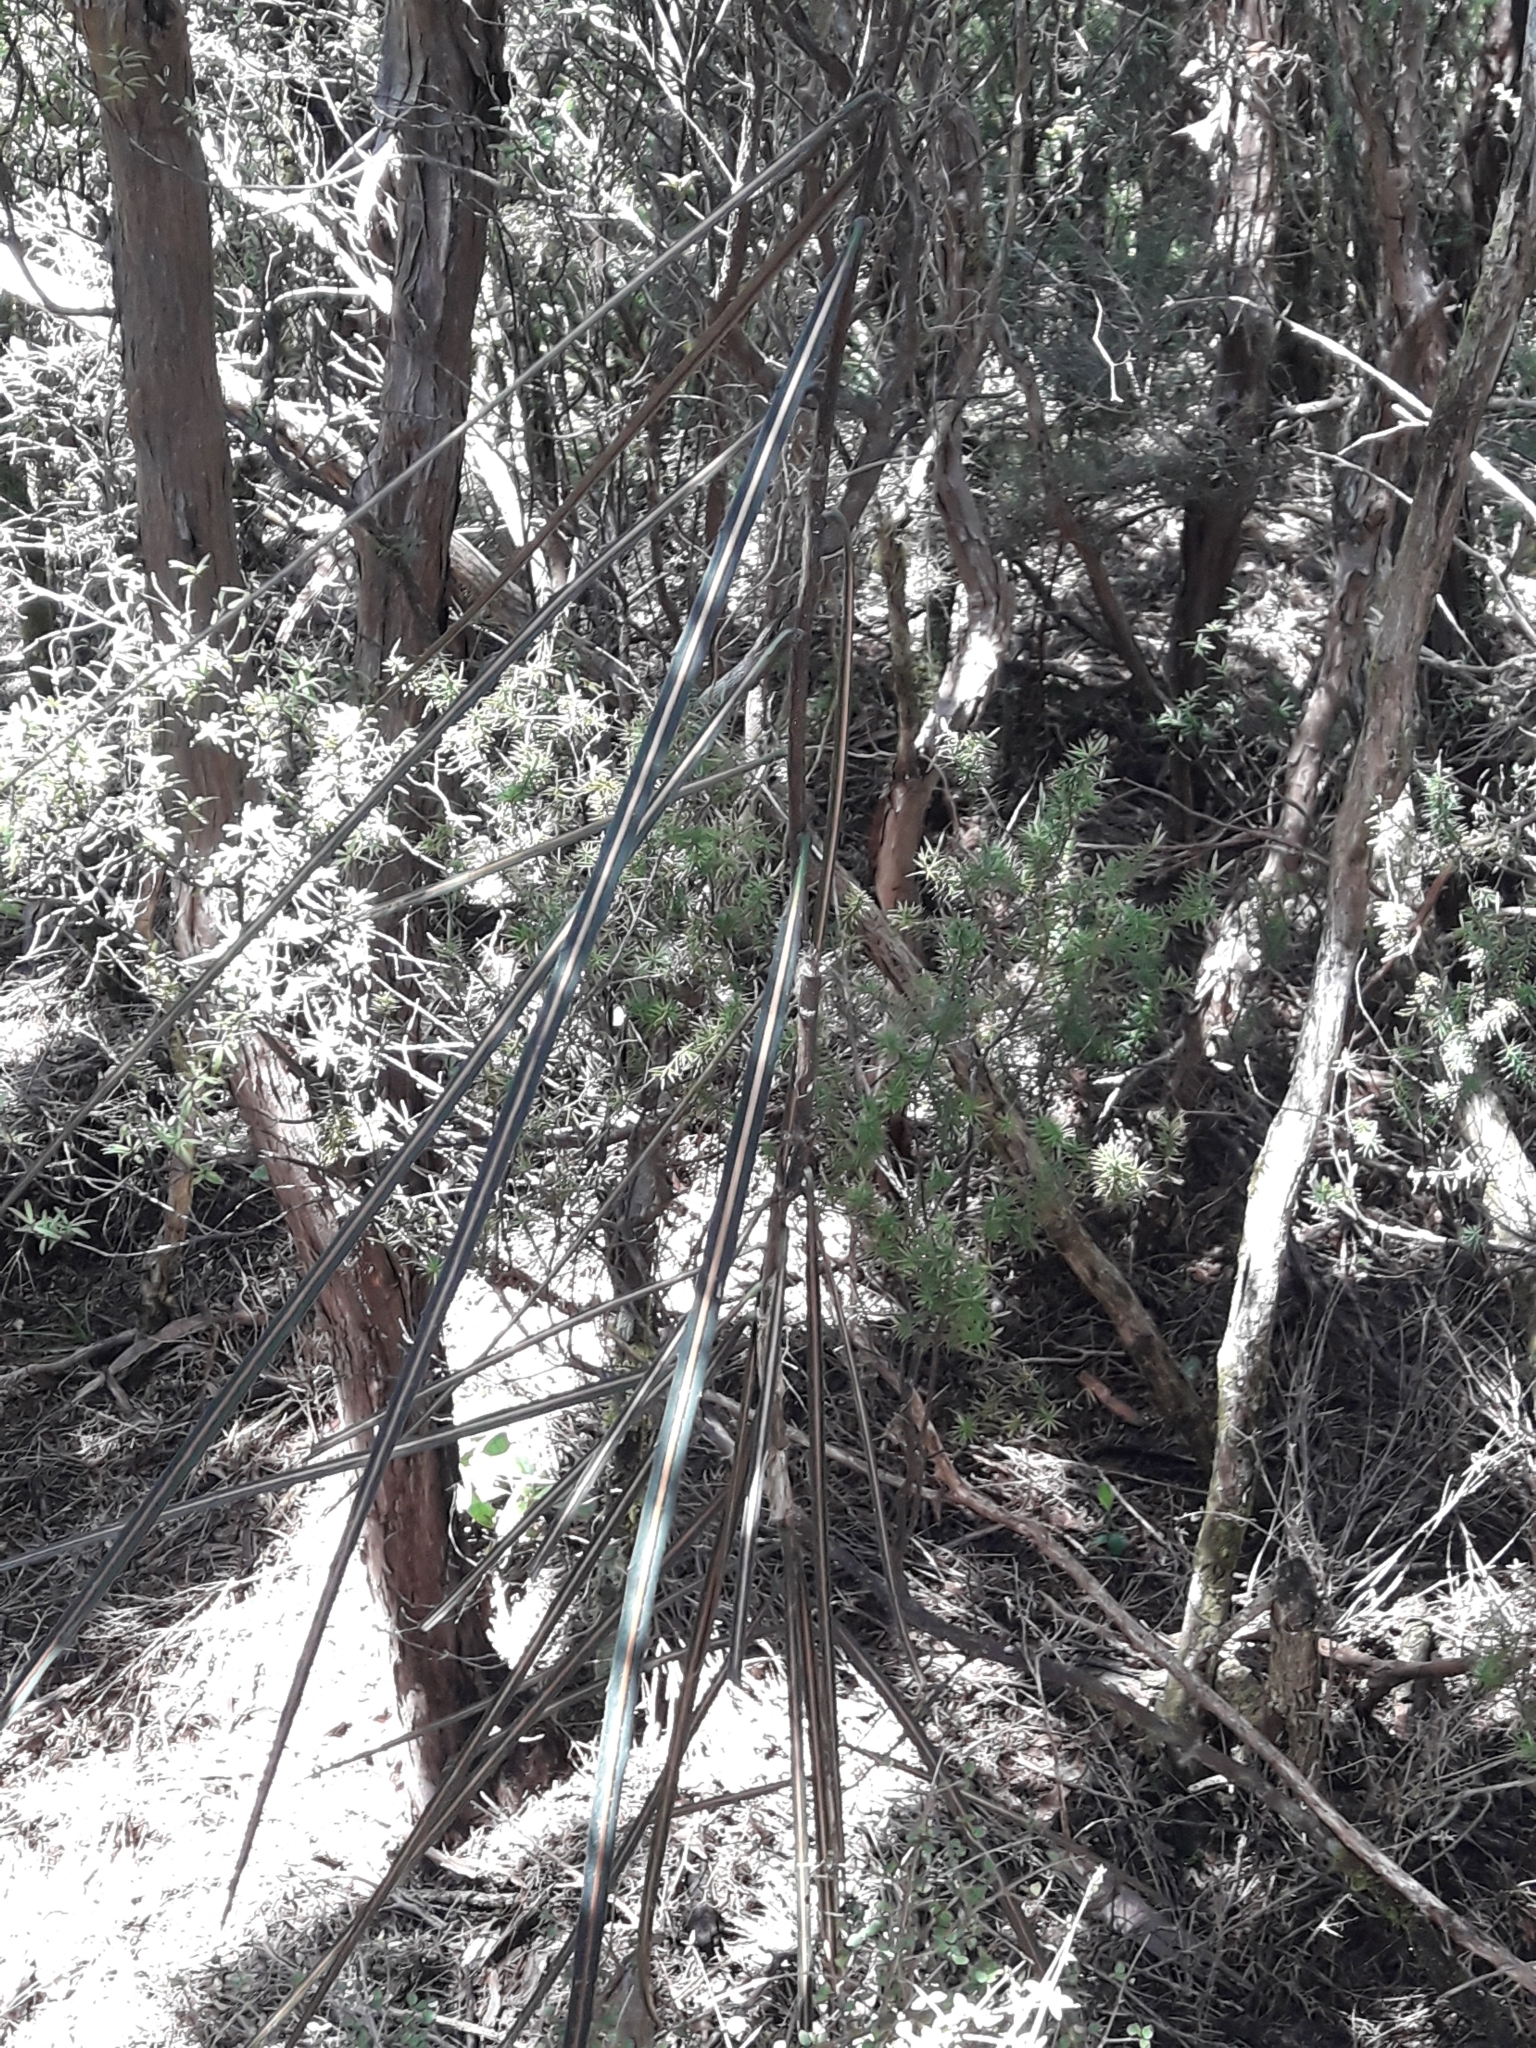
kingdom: Plantae
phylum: Tracheophyta
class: Magnoliopsida
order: Apiales
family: Araliaceae
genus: Pseudopanax
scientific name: Pseudopanax crassifolius
